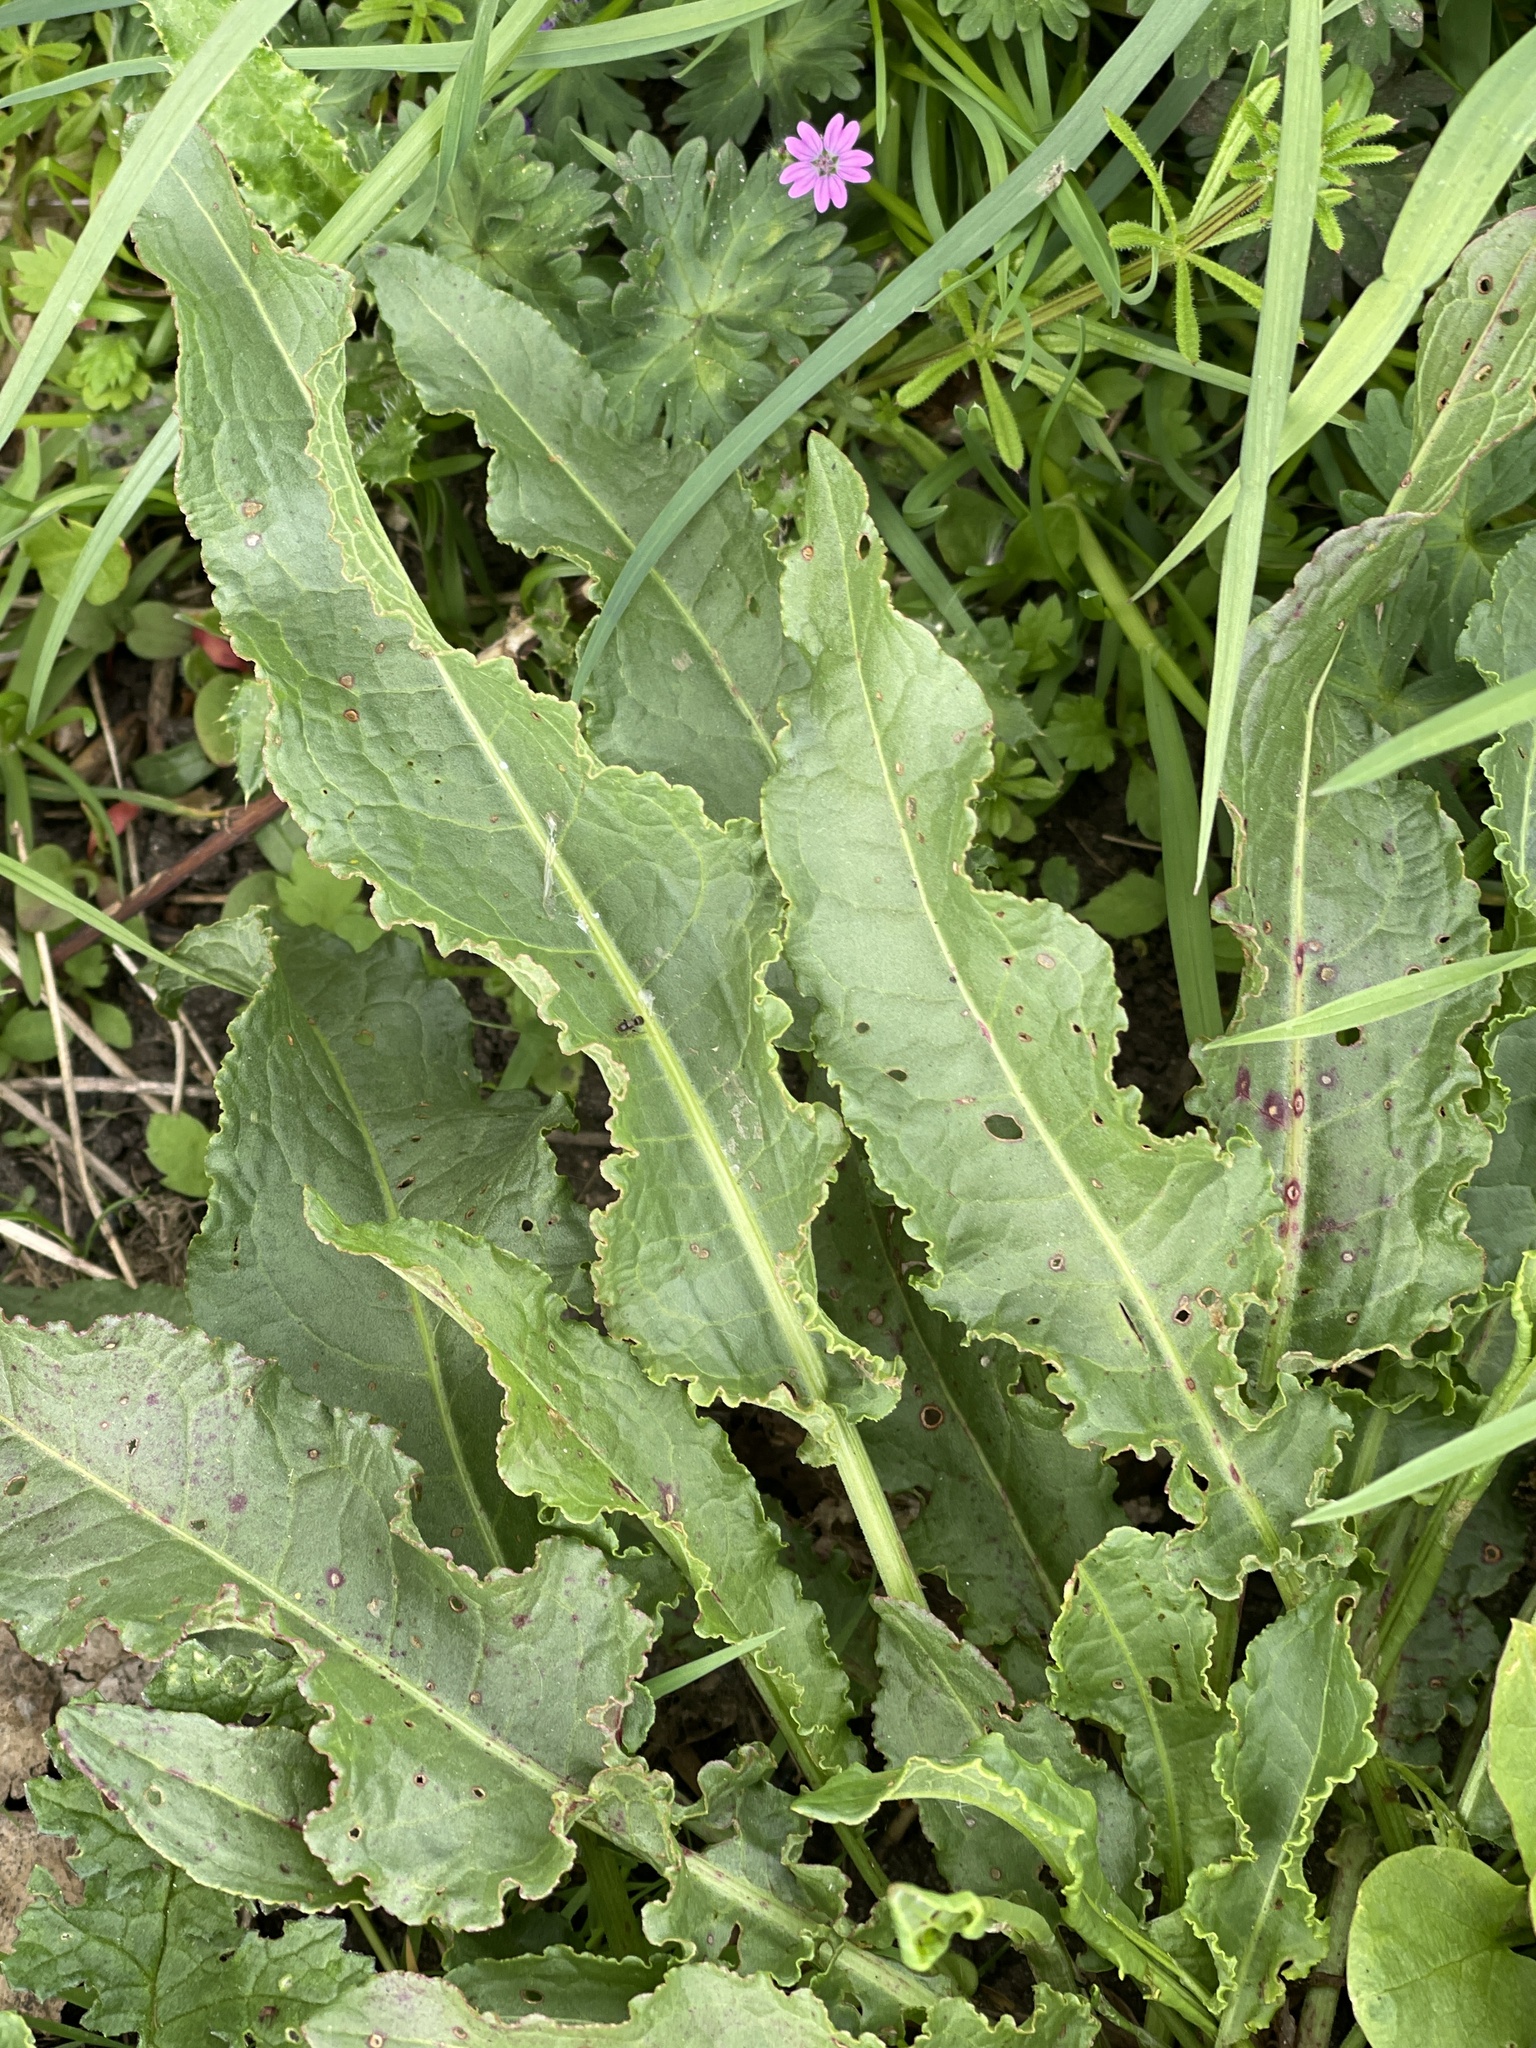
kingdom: Plantae
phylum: Tracheophyta
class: Magnoliopsida
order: Caryophyllales
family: Polygonaceae
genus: Rumex
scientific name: Rumex crispus
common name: Curled dock
